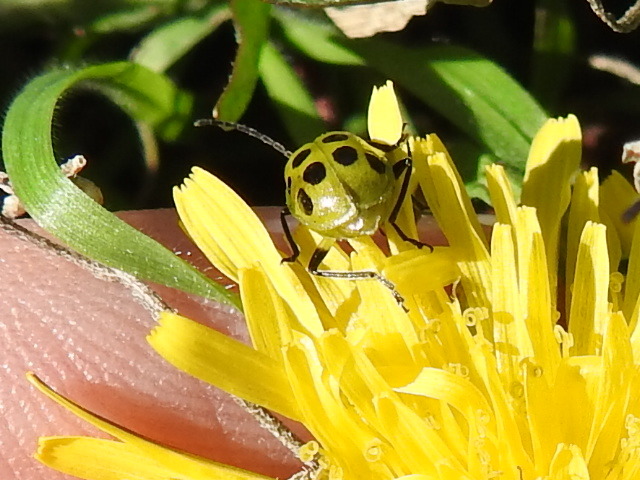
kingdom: Animalia
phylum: Arthropoda
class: Insecta
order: Coleoptera
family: Chrysomelidae
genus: Diabrotica
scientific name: Diabrotica undecimpunctata
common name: Spotted cucumber beetle
